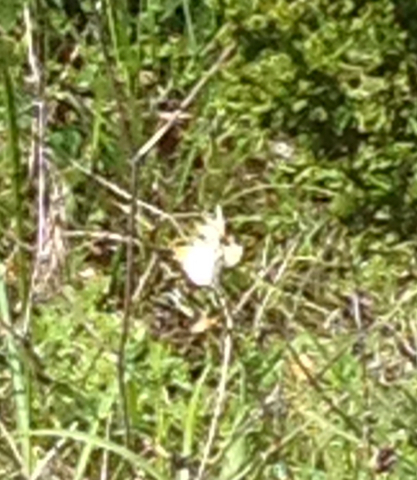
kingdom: Animalia
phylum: Arthropoda
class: Insecta
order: Lepidoptera
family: Pieridae
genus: Anthocharis
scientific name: Anthocharis midea
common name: Falcate orangetip
